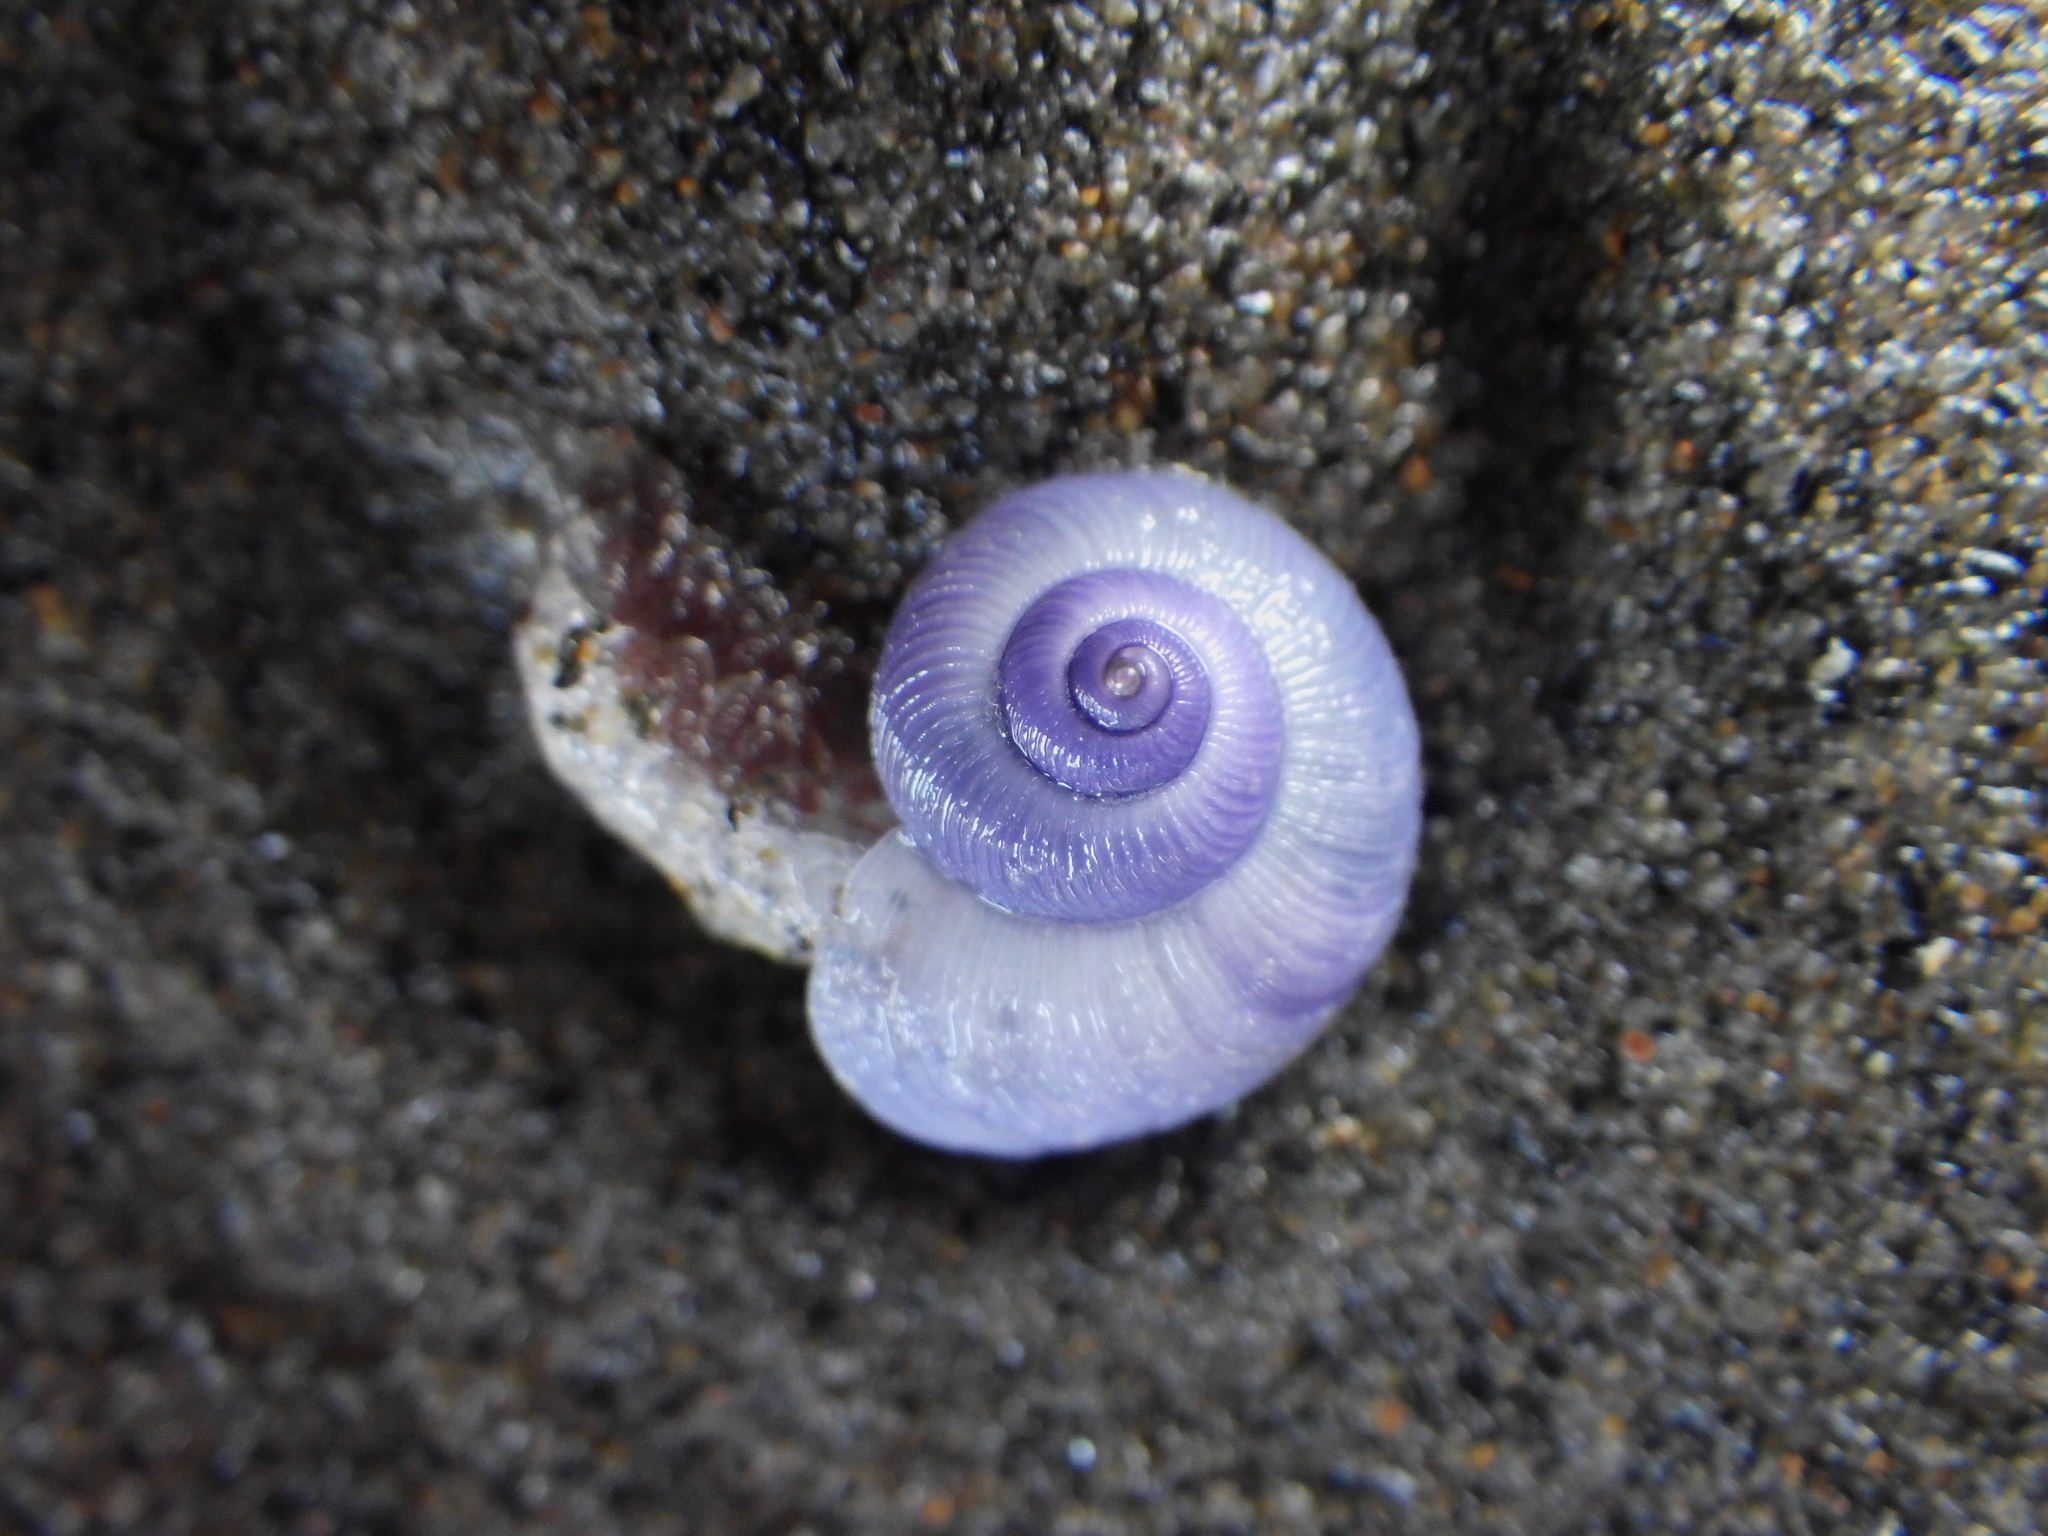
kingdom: Animalia
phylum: Mollusca
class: Gastropoda
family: Epitoniidae
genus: Janthina
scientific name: Janthina exigua
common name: Dwarf janthina
